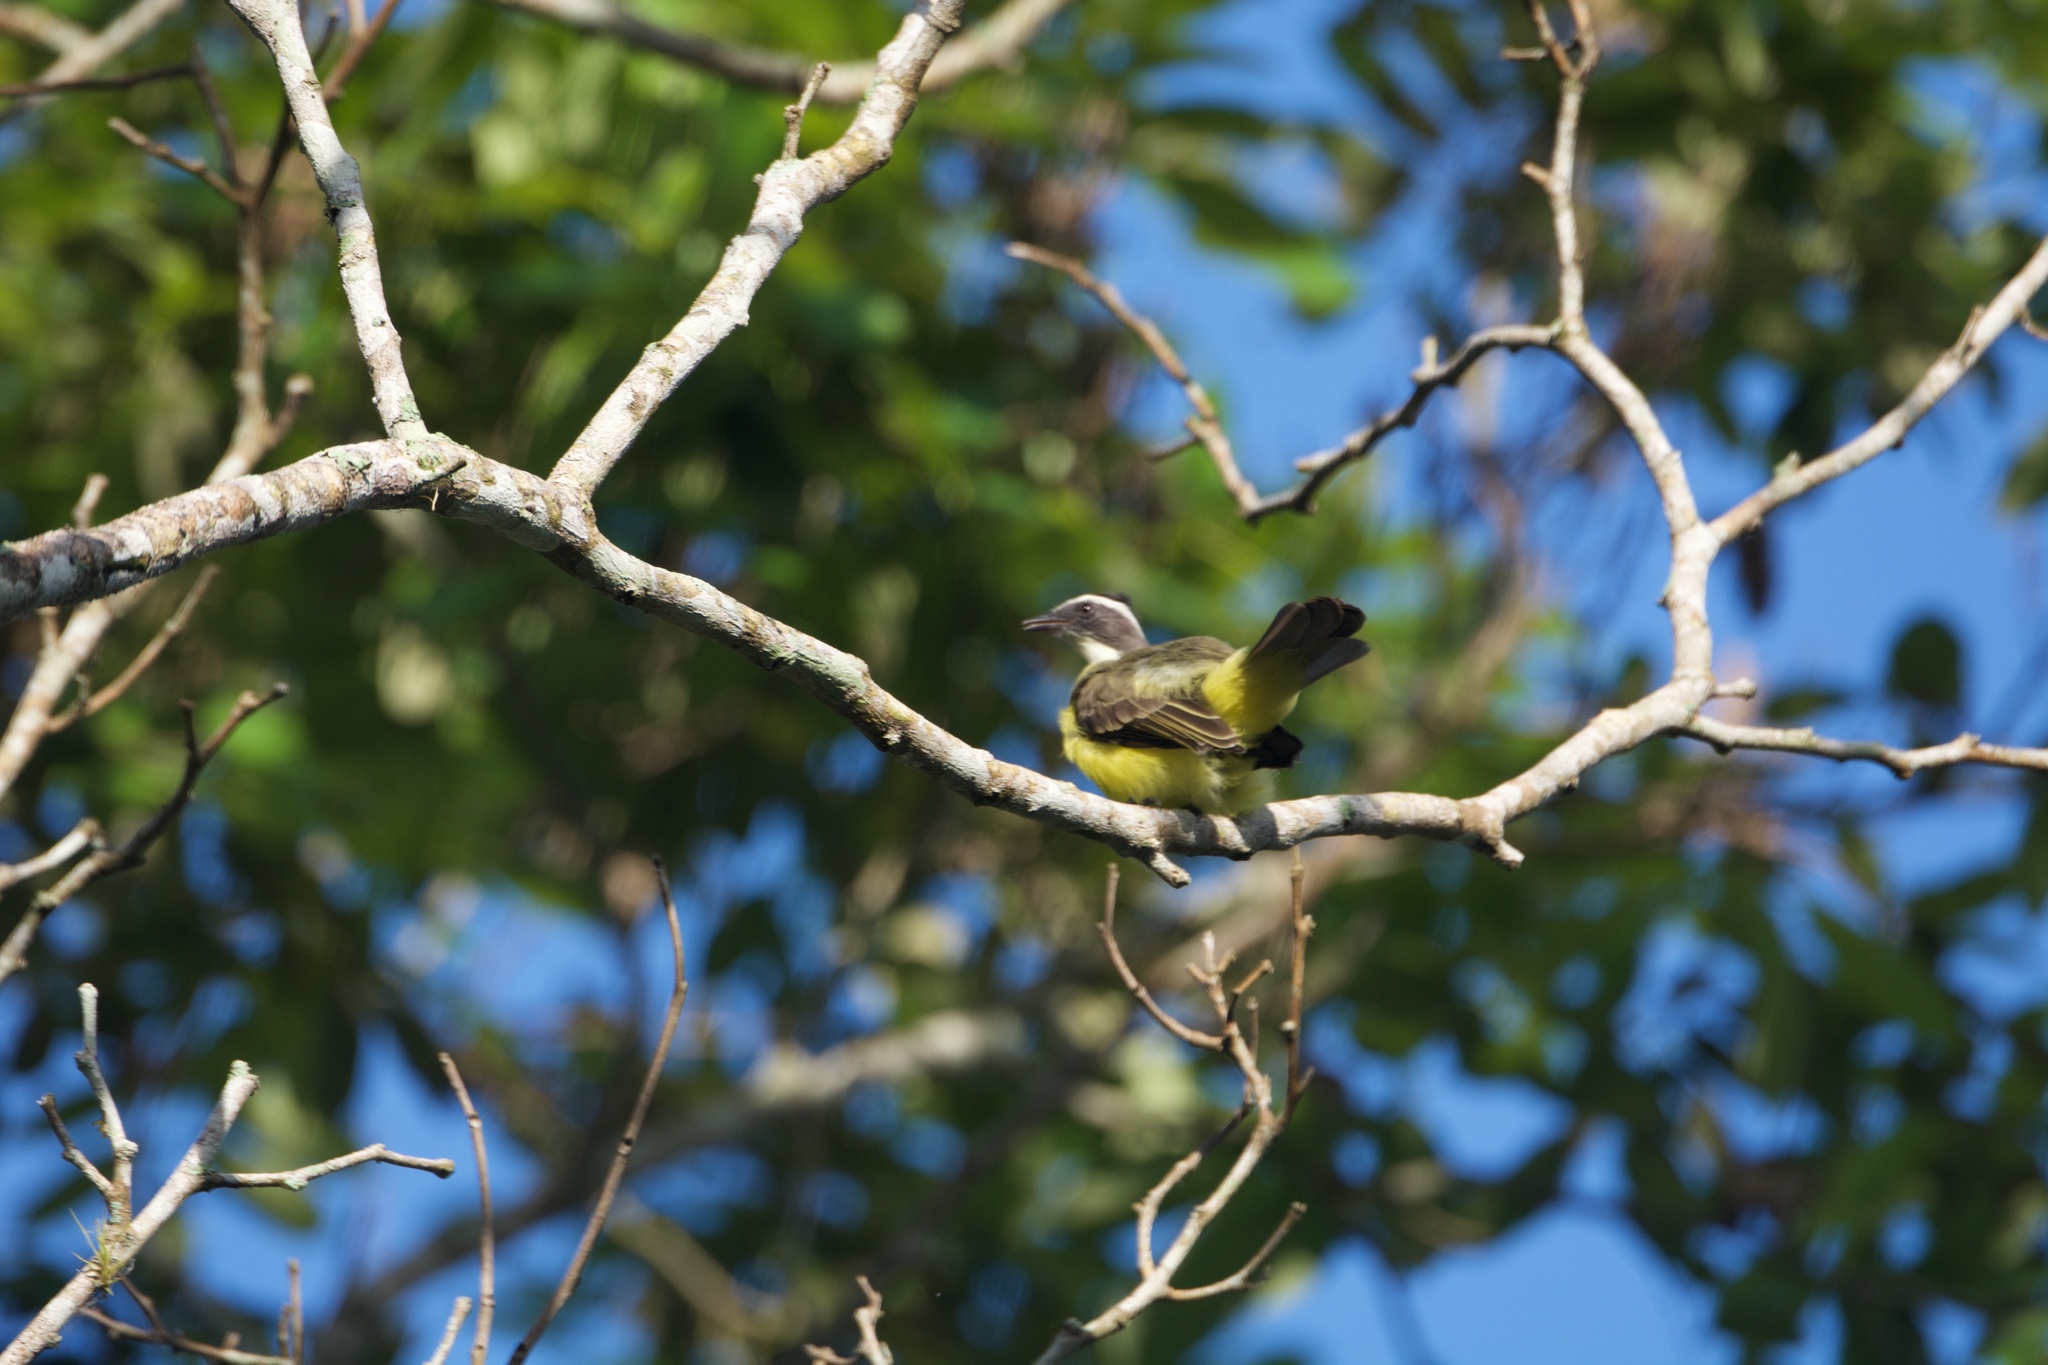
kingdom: Animalia
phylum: Chordata
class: Aves
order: Passeriformes
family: Tyrannidae
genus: Myiozetetes
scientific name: Myiozetetes similis
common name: Social flycatcher
